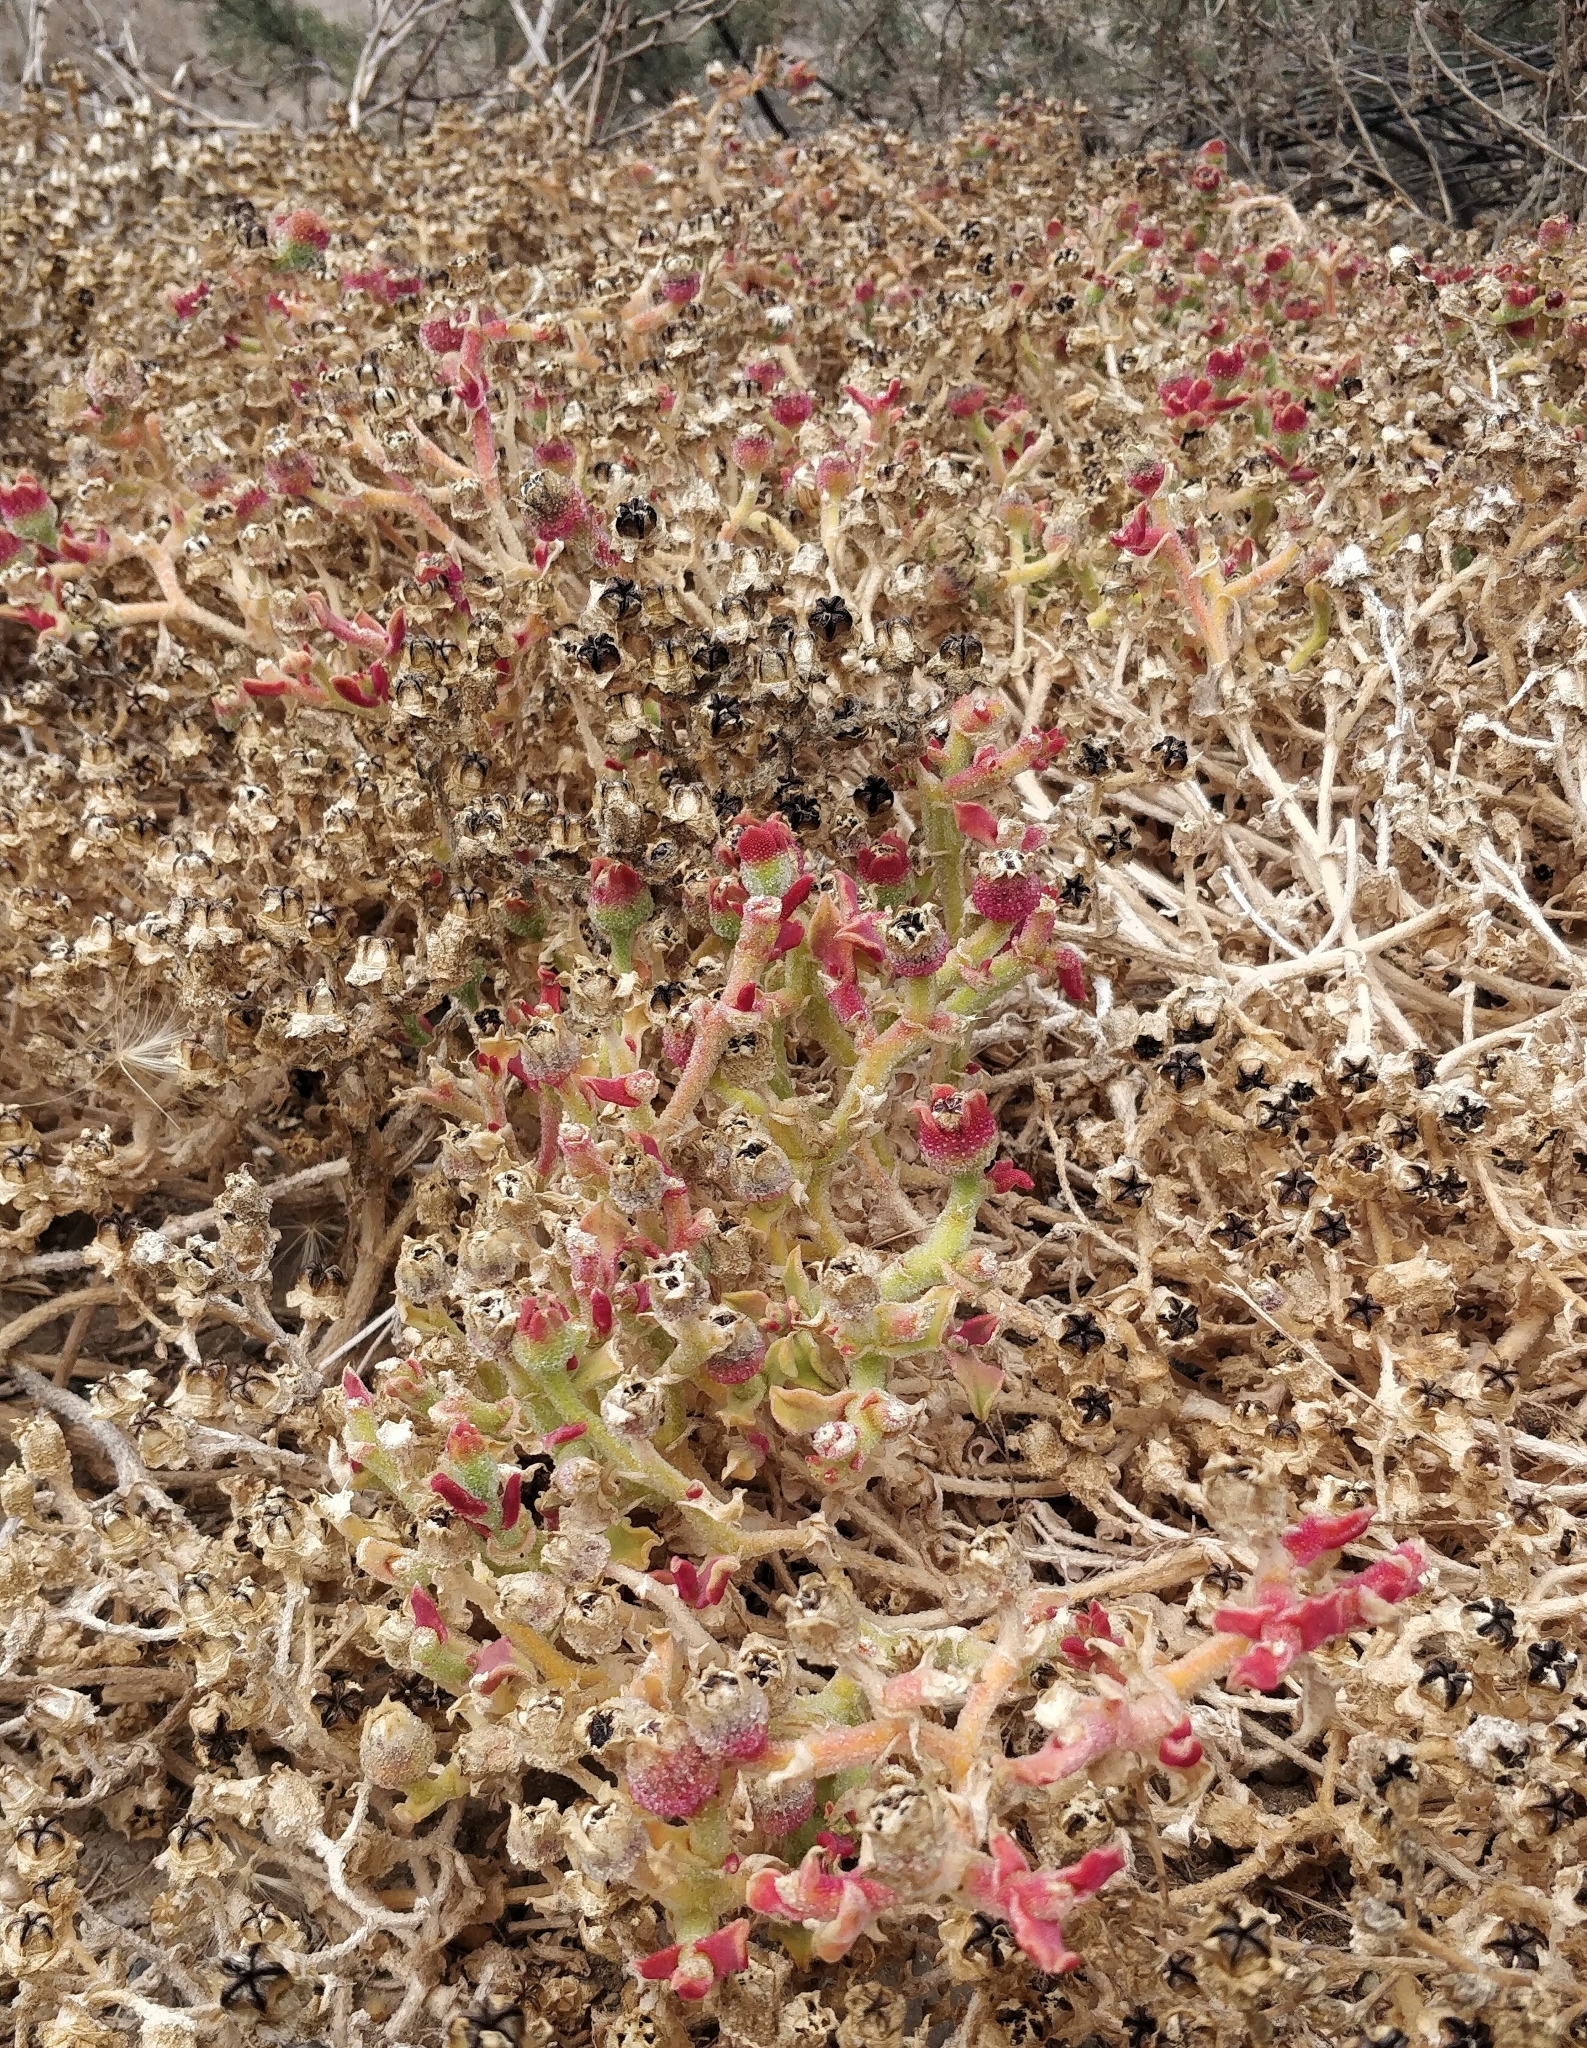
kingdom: Plantae
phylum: Tracheophyta
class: Magnoliopsida
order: Caryophyllales
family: Aizoaceae
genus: Mesembryanthemum
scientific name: Mesembryanthemum crystallinum
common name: Common iceplant
